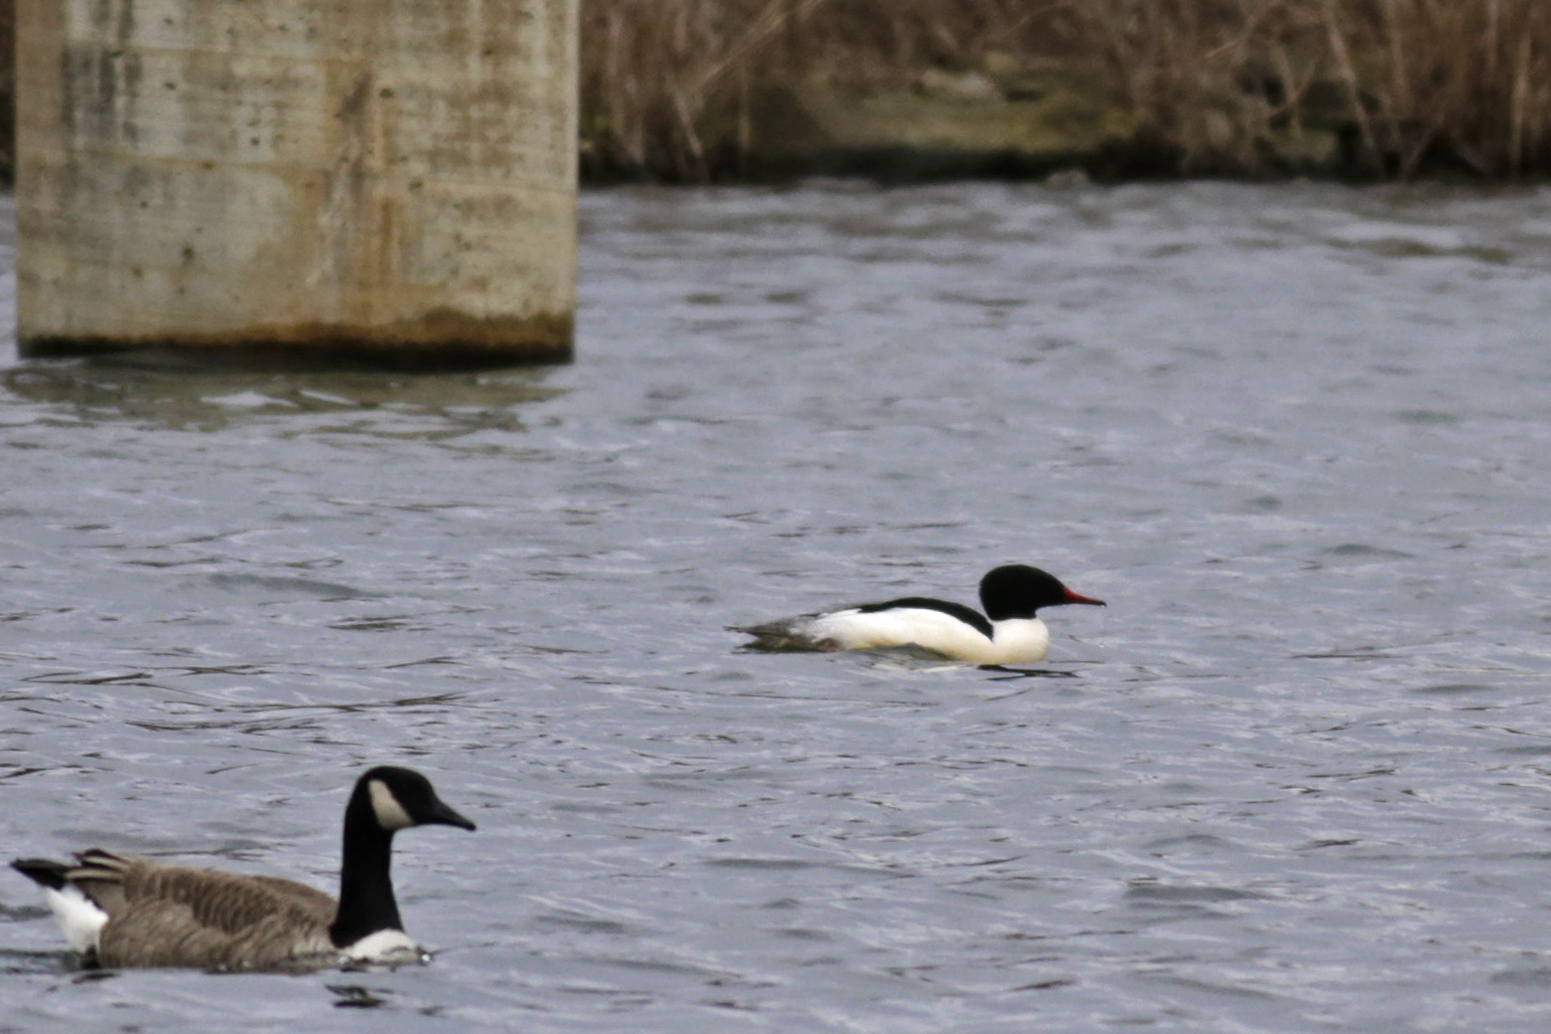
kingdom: Animalia
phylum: Chordata
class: Aves
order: Anseriformes
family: Anatidae
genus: Mergus
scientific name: Mergus merganser
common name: Common merganser
